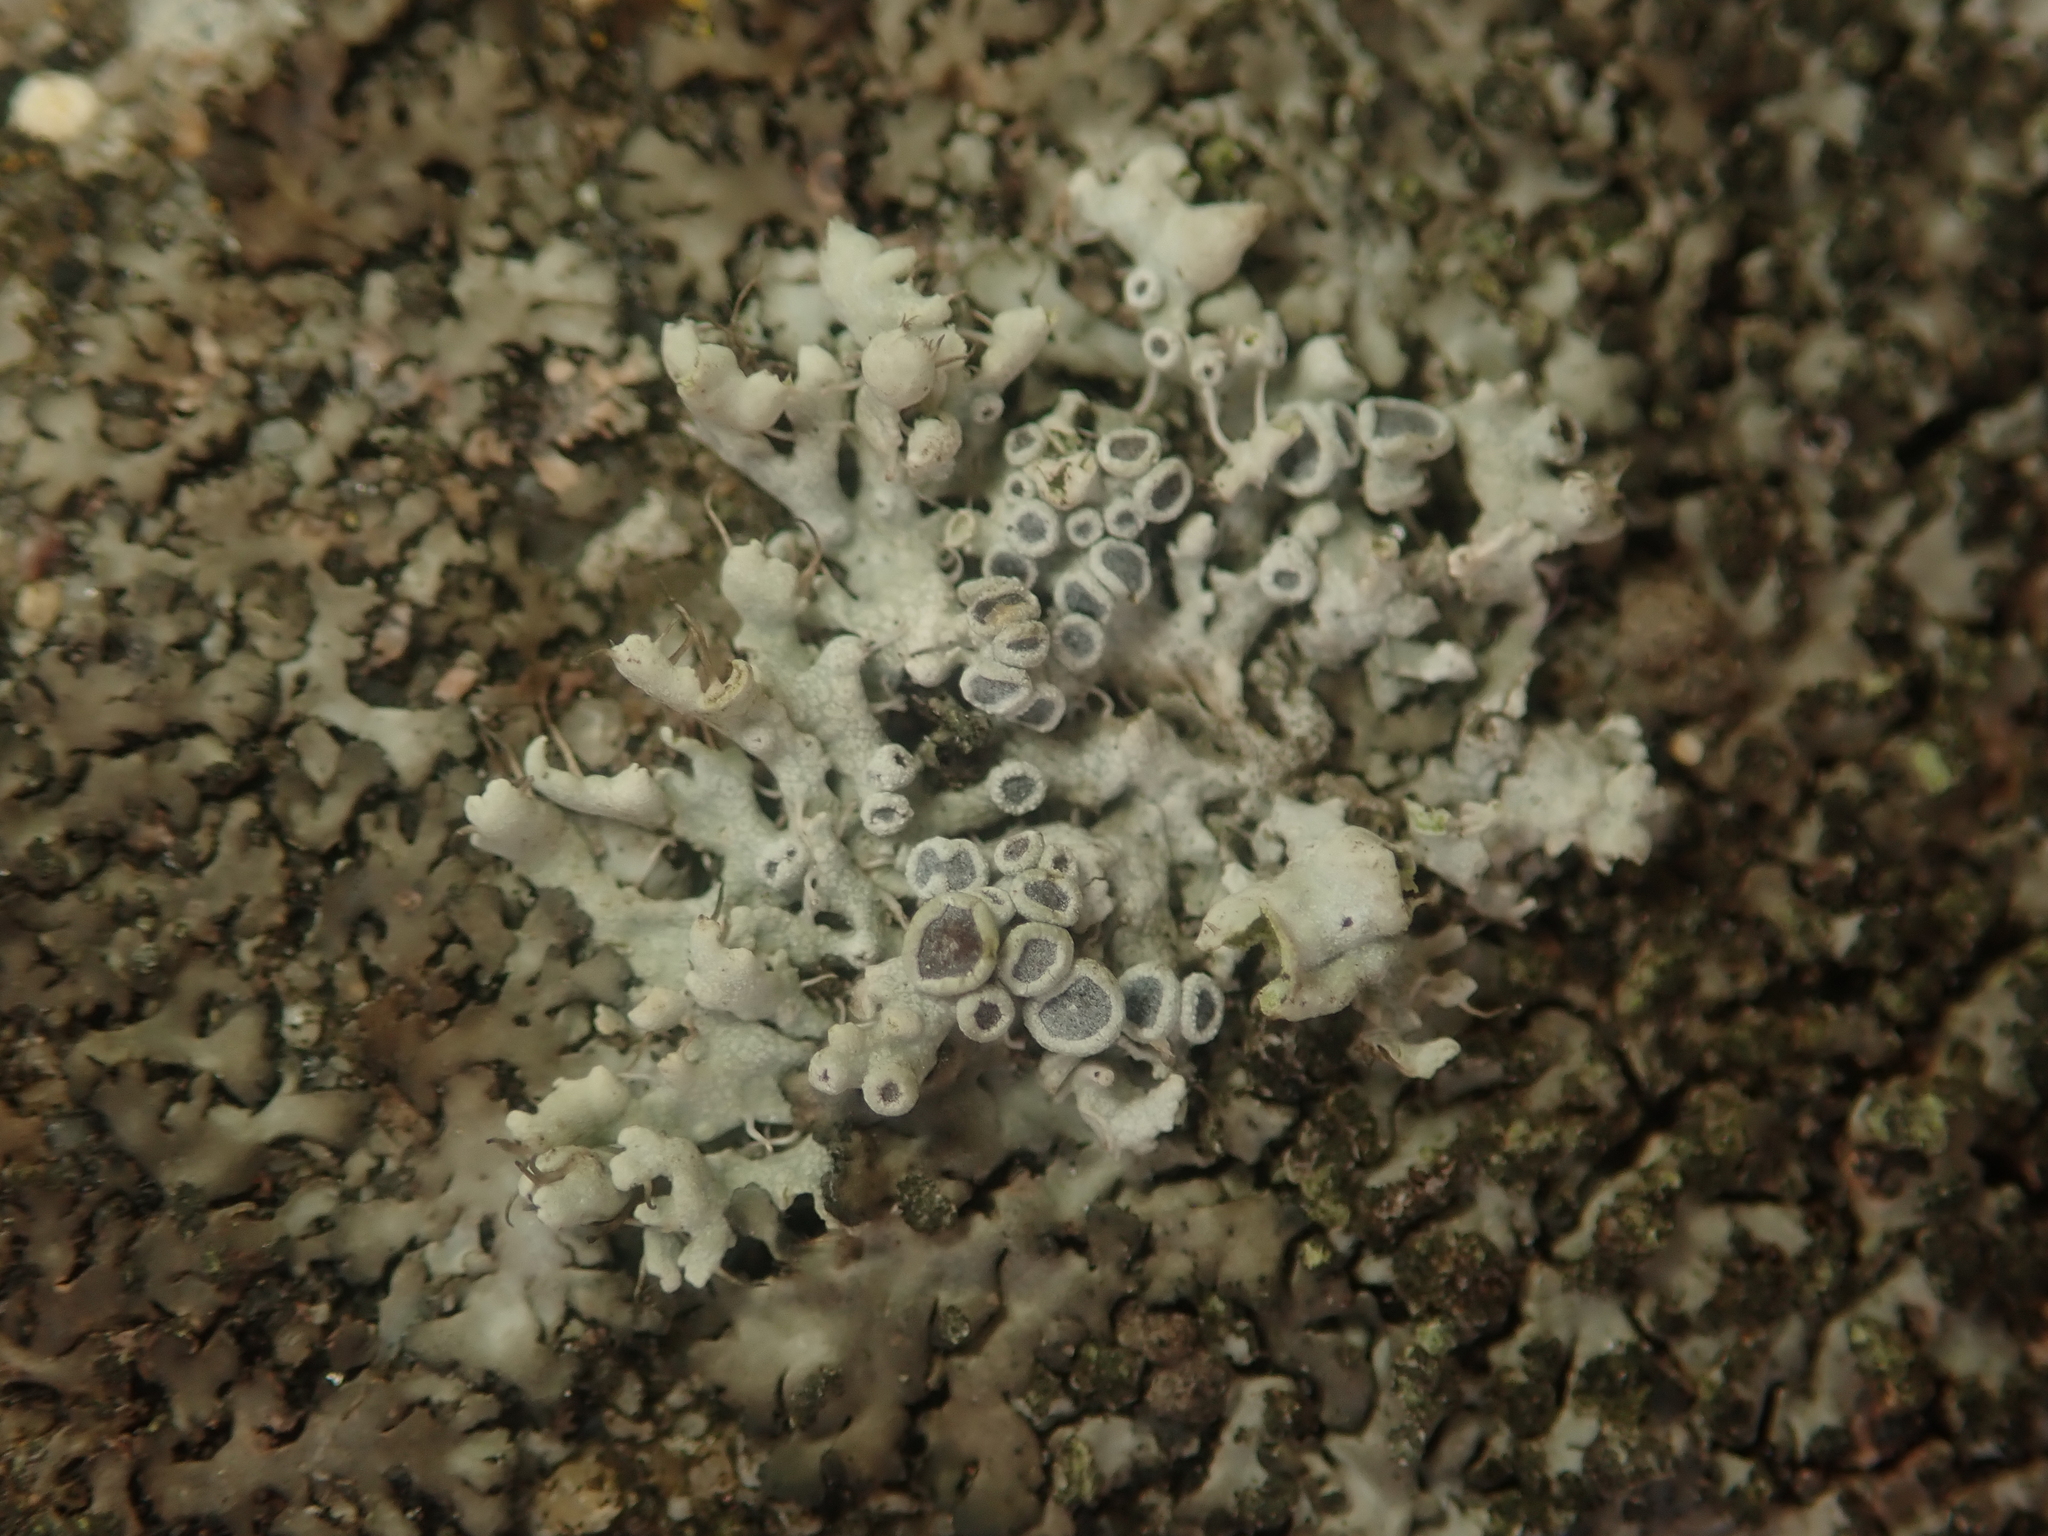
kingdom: Fungi
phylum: Ascomycota
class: Lecanoromycetes
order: Caliciales
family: Physciaceae
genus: Physcia
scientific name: Physcia adscendens
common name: Hooded rosette lichen
